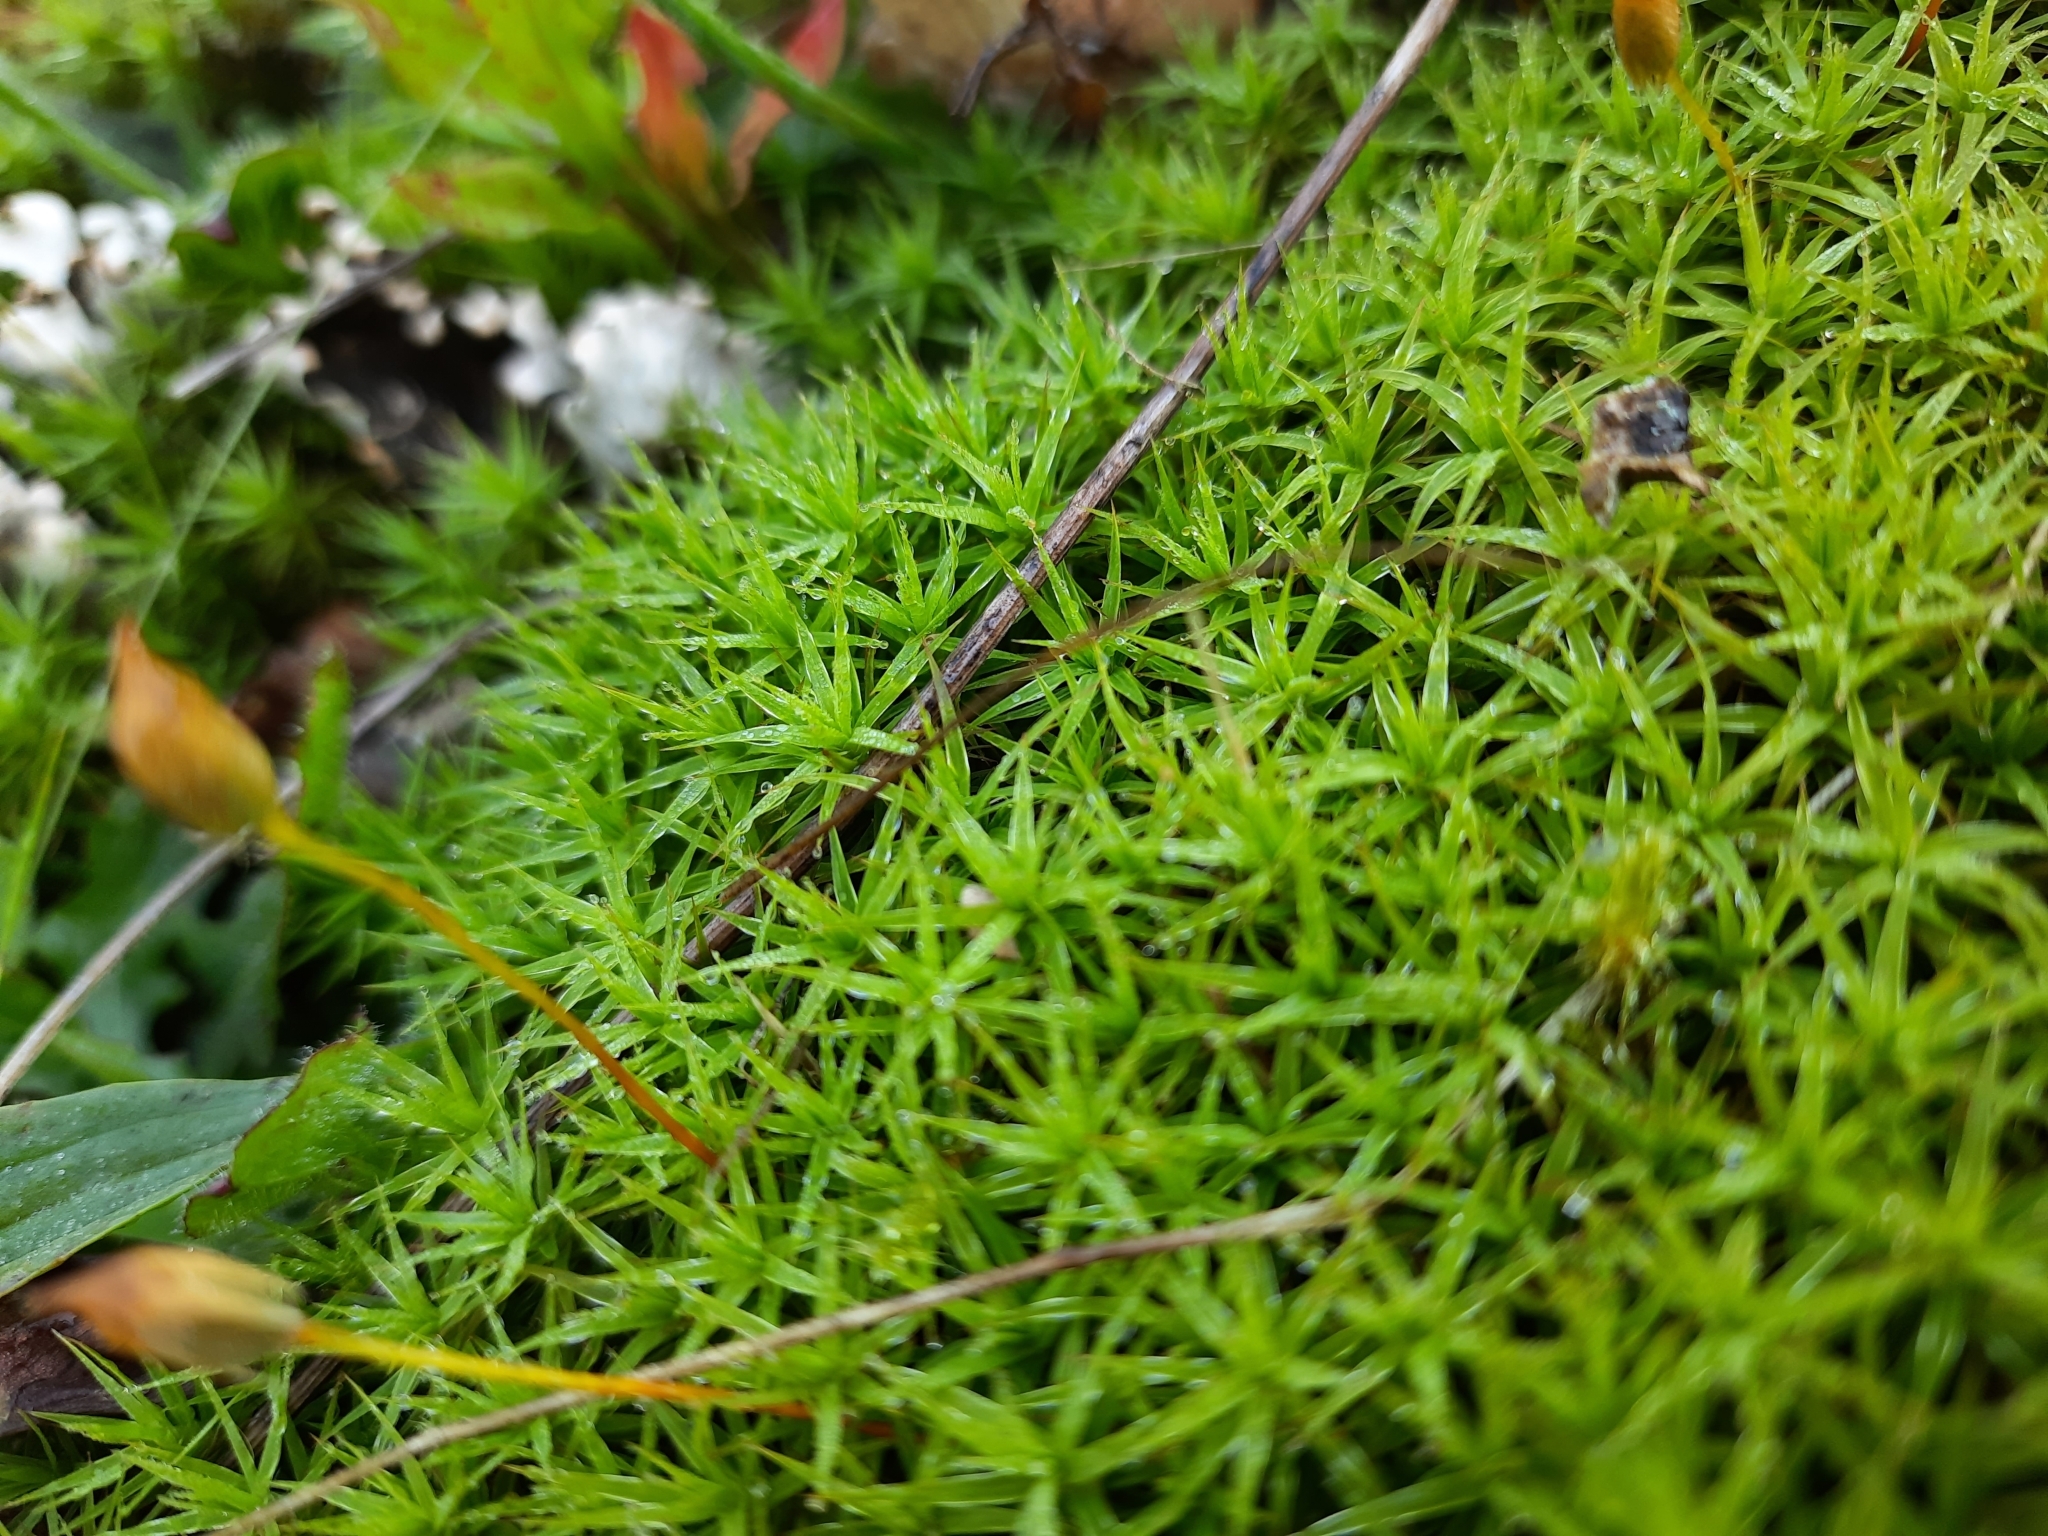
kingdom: Plantae
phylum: Bryophyta
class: Polytrichopsida
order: Polytrichales
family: Polytrichaceae
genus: Polytrichum
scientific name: Polytrichum formosum
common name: Bank haircap moss
